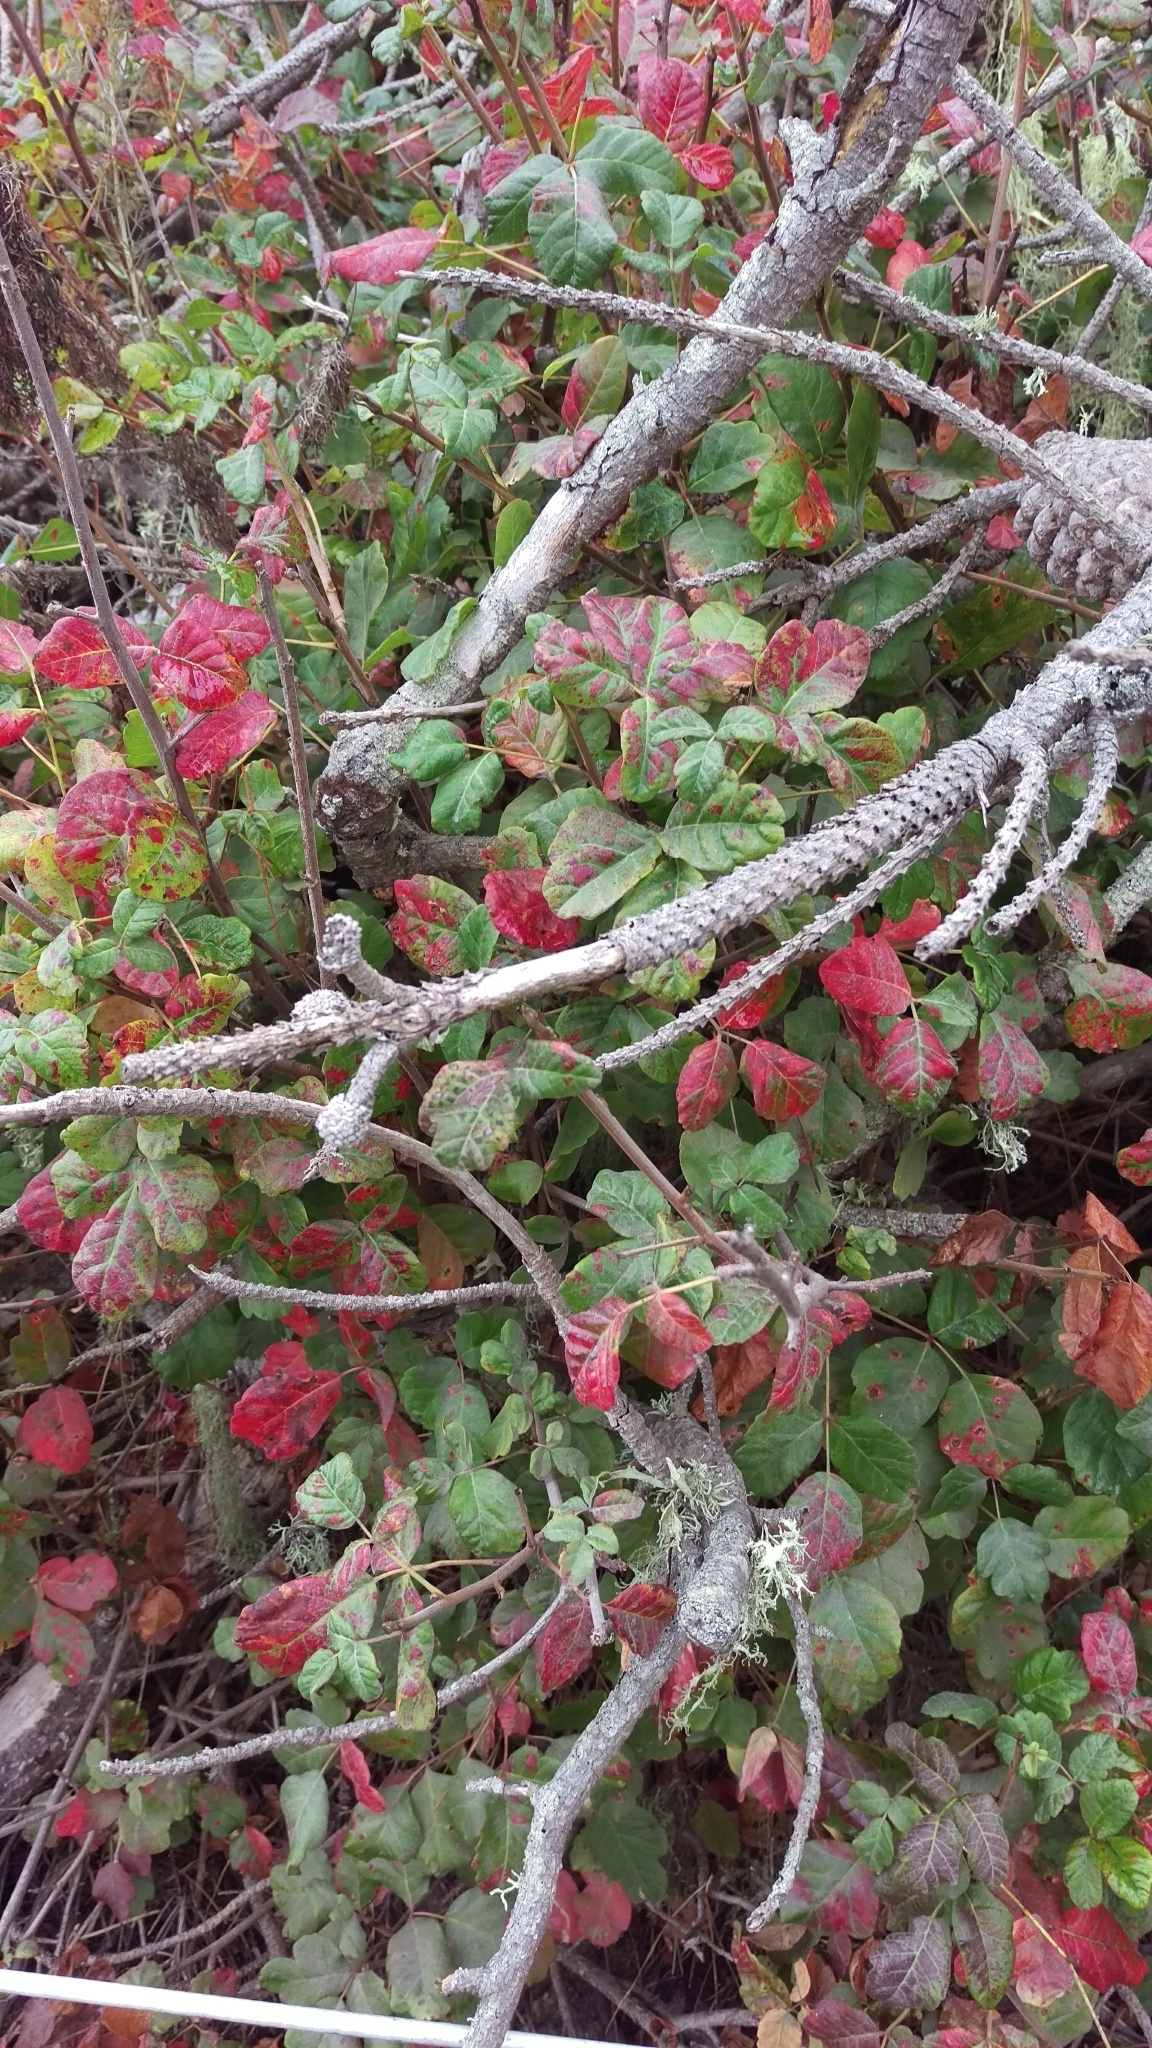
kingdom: Plantae
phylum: Tracheophyta
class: Magnoliopsida
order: Sapindales
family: Anacardiaceae
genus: Toxicodendron
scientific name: Toxicodendron diversilobum
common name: Pacific poison-oak
